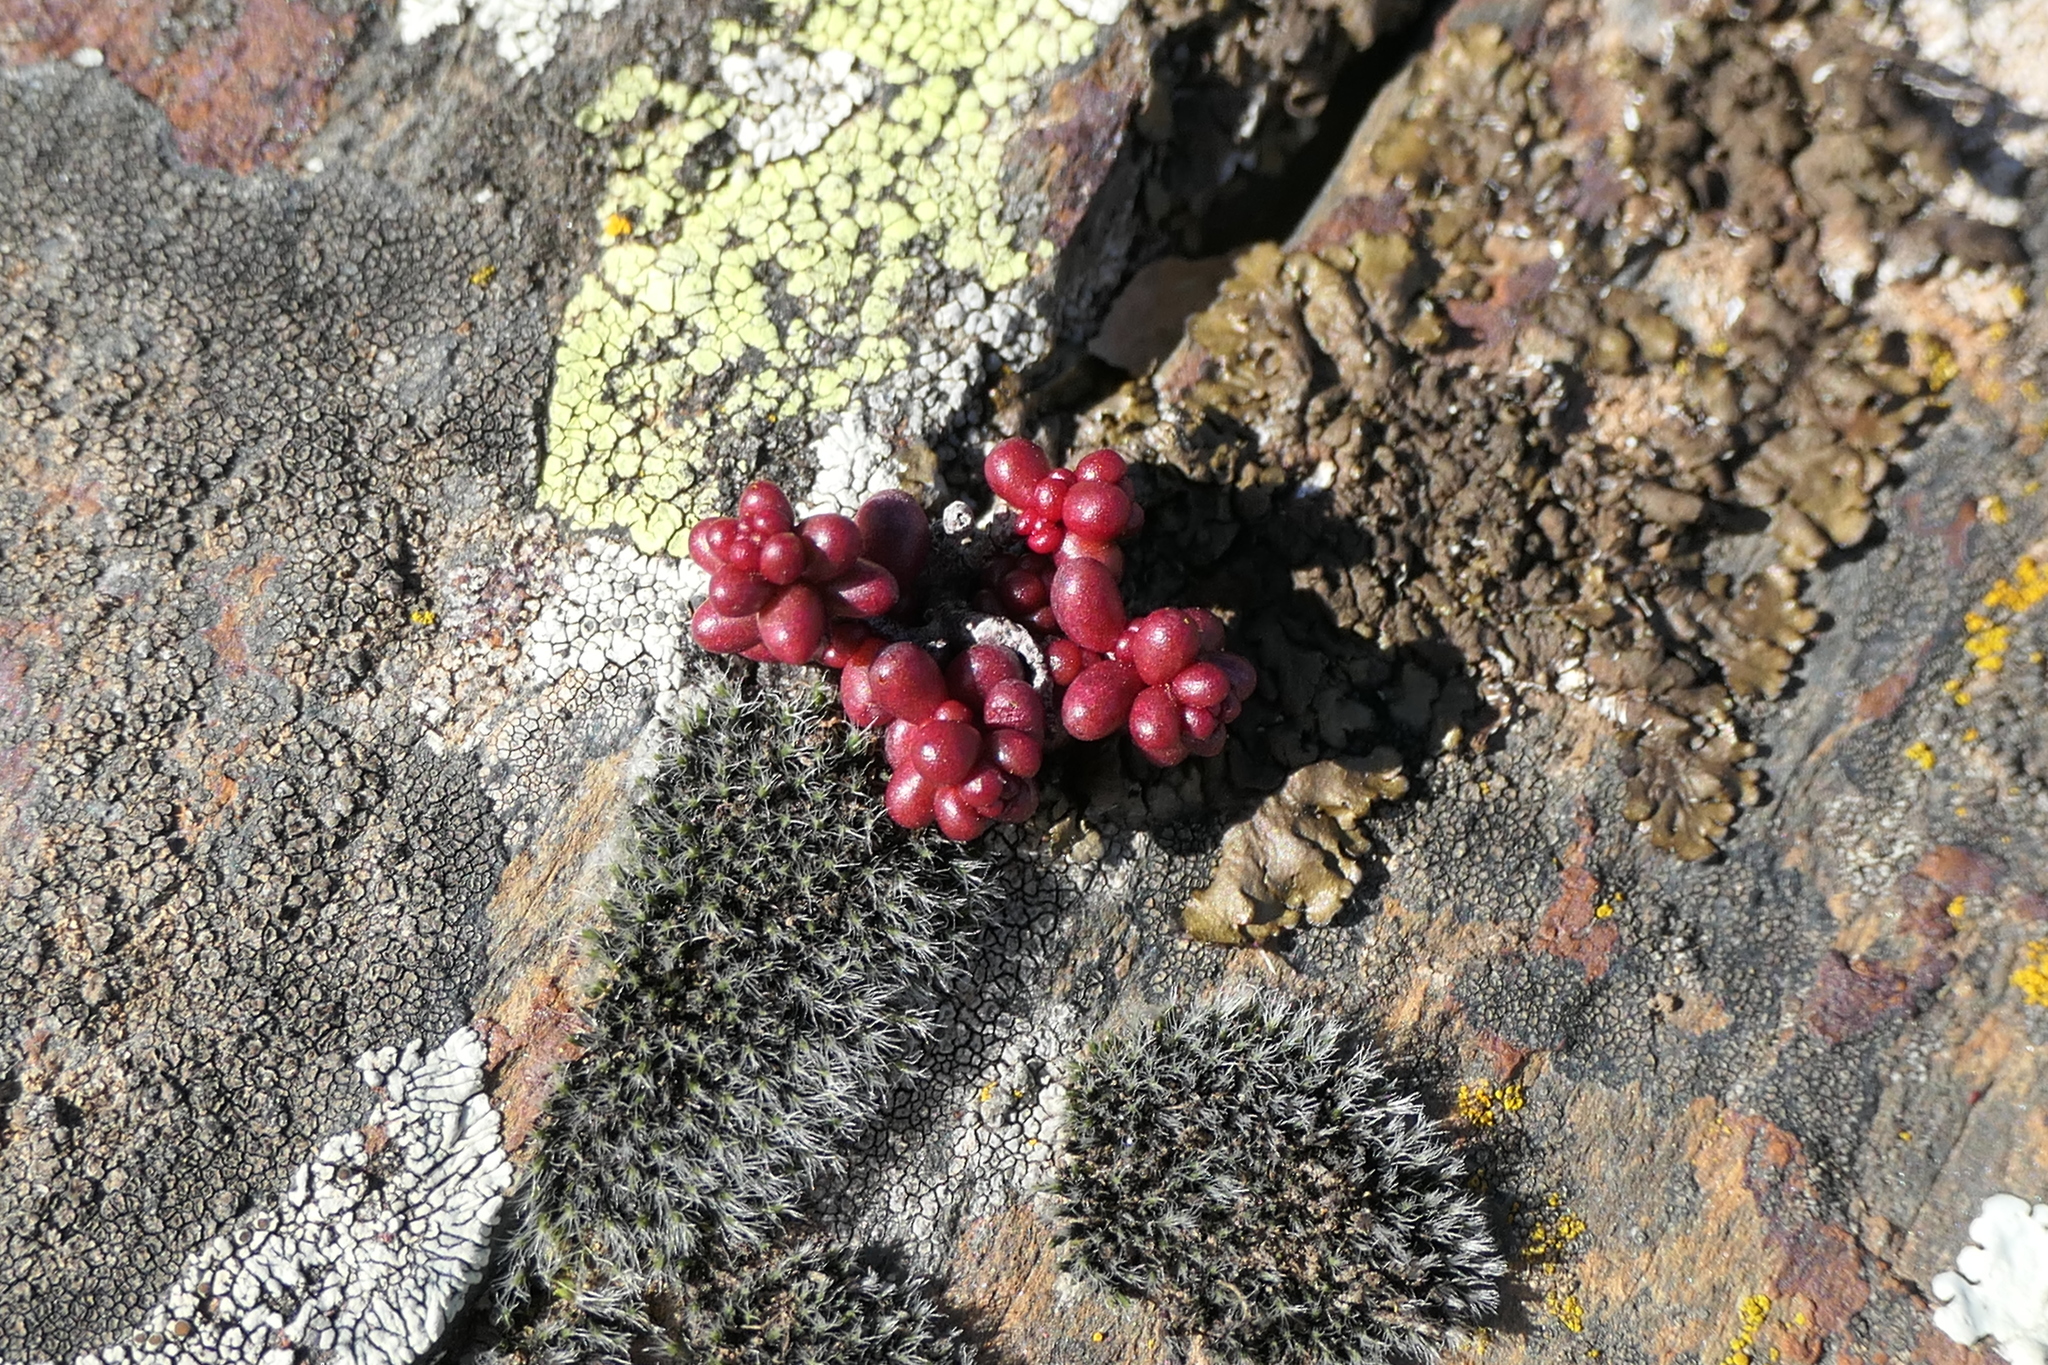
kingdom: Plantae
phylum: Tracheophyta
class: Magnoliopsida
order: Saxifragales
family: Crassulaceae
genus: Sedum
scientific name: Sedum brevifolium
